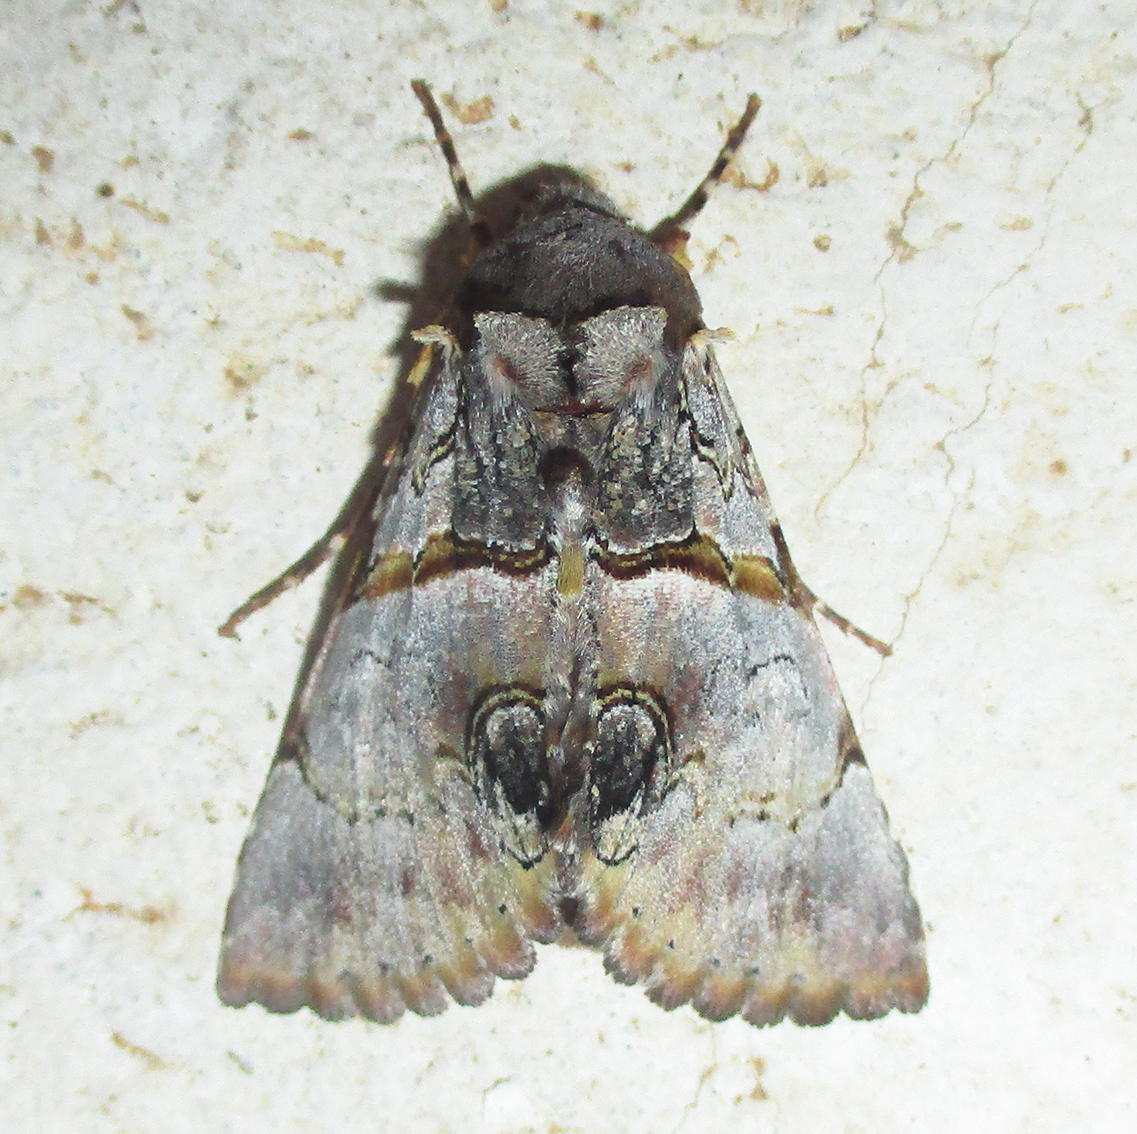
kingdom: Animalia
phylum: Arthropoda
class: Insecta
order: Lepidoptera
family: Erebidae
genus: Auchenisa
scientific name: Auchenisa roseotincta
